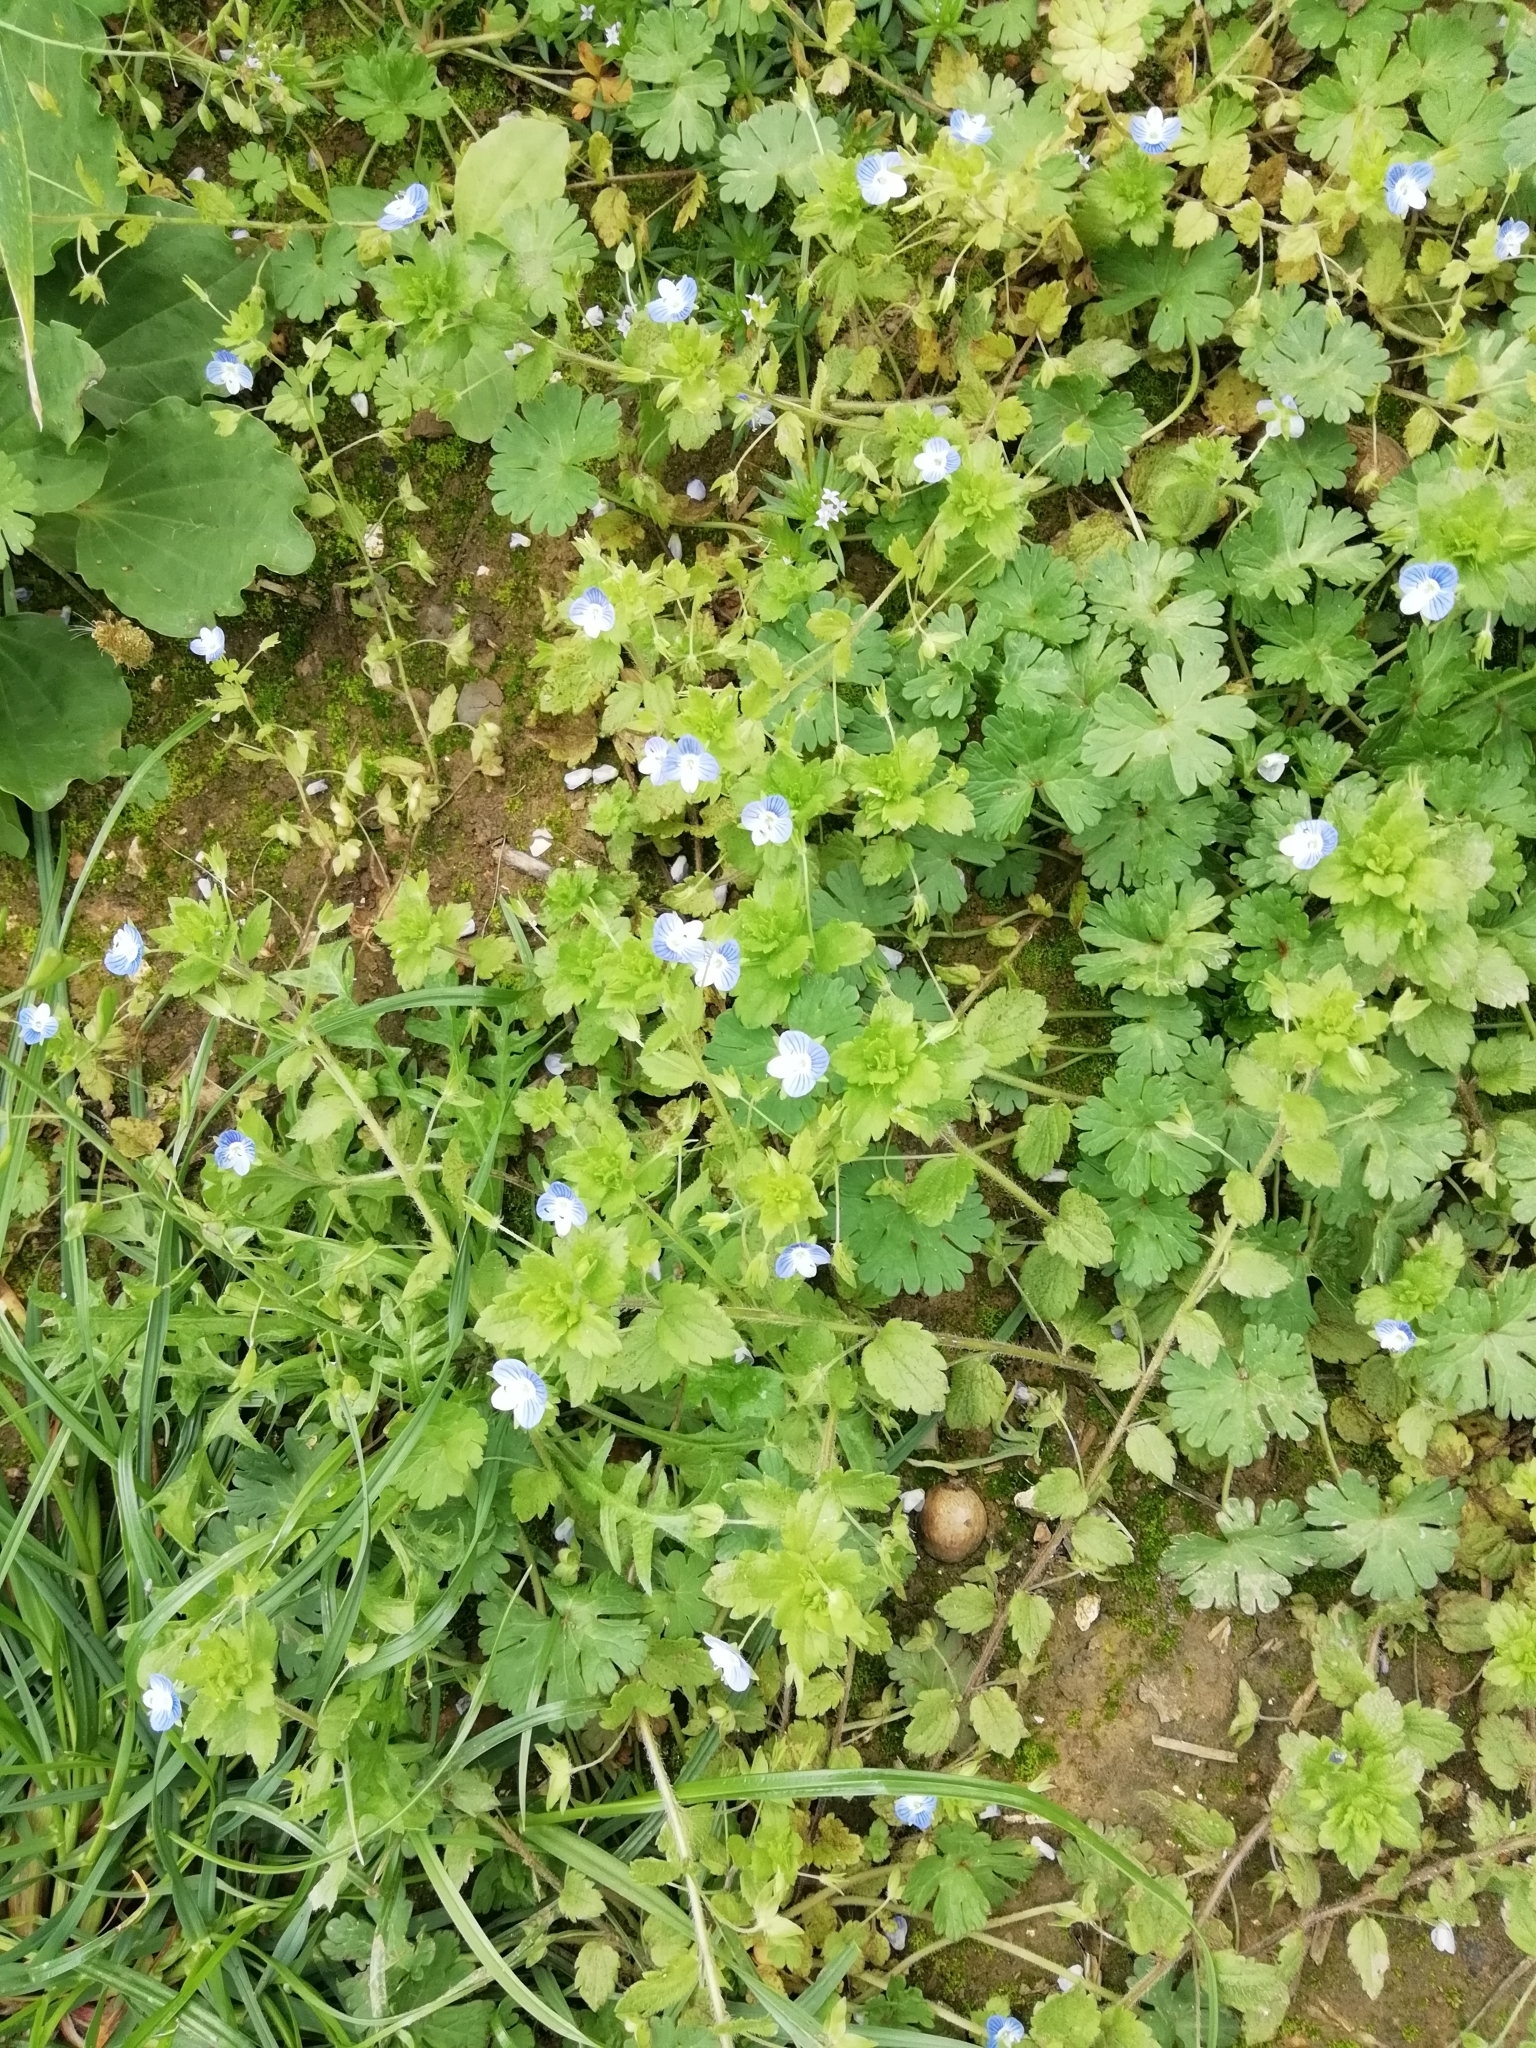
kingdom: Plantae
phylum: Tracheophyta
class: Magnoliopsida
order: Lamiales
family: Plantaginaceae
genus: Veronica
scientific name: Veronica persica
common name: Common field-speedwell
